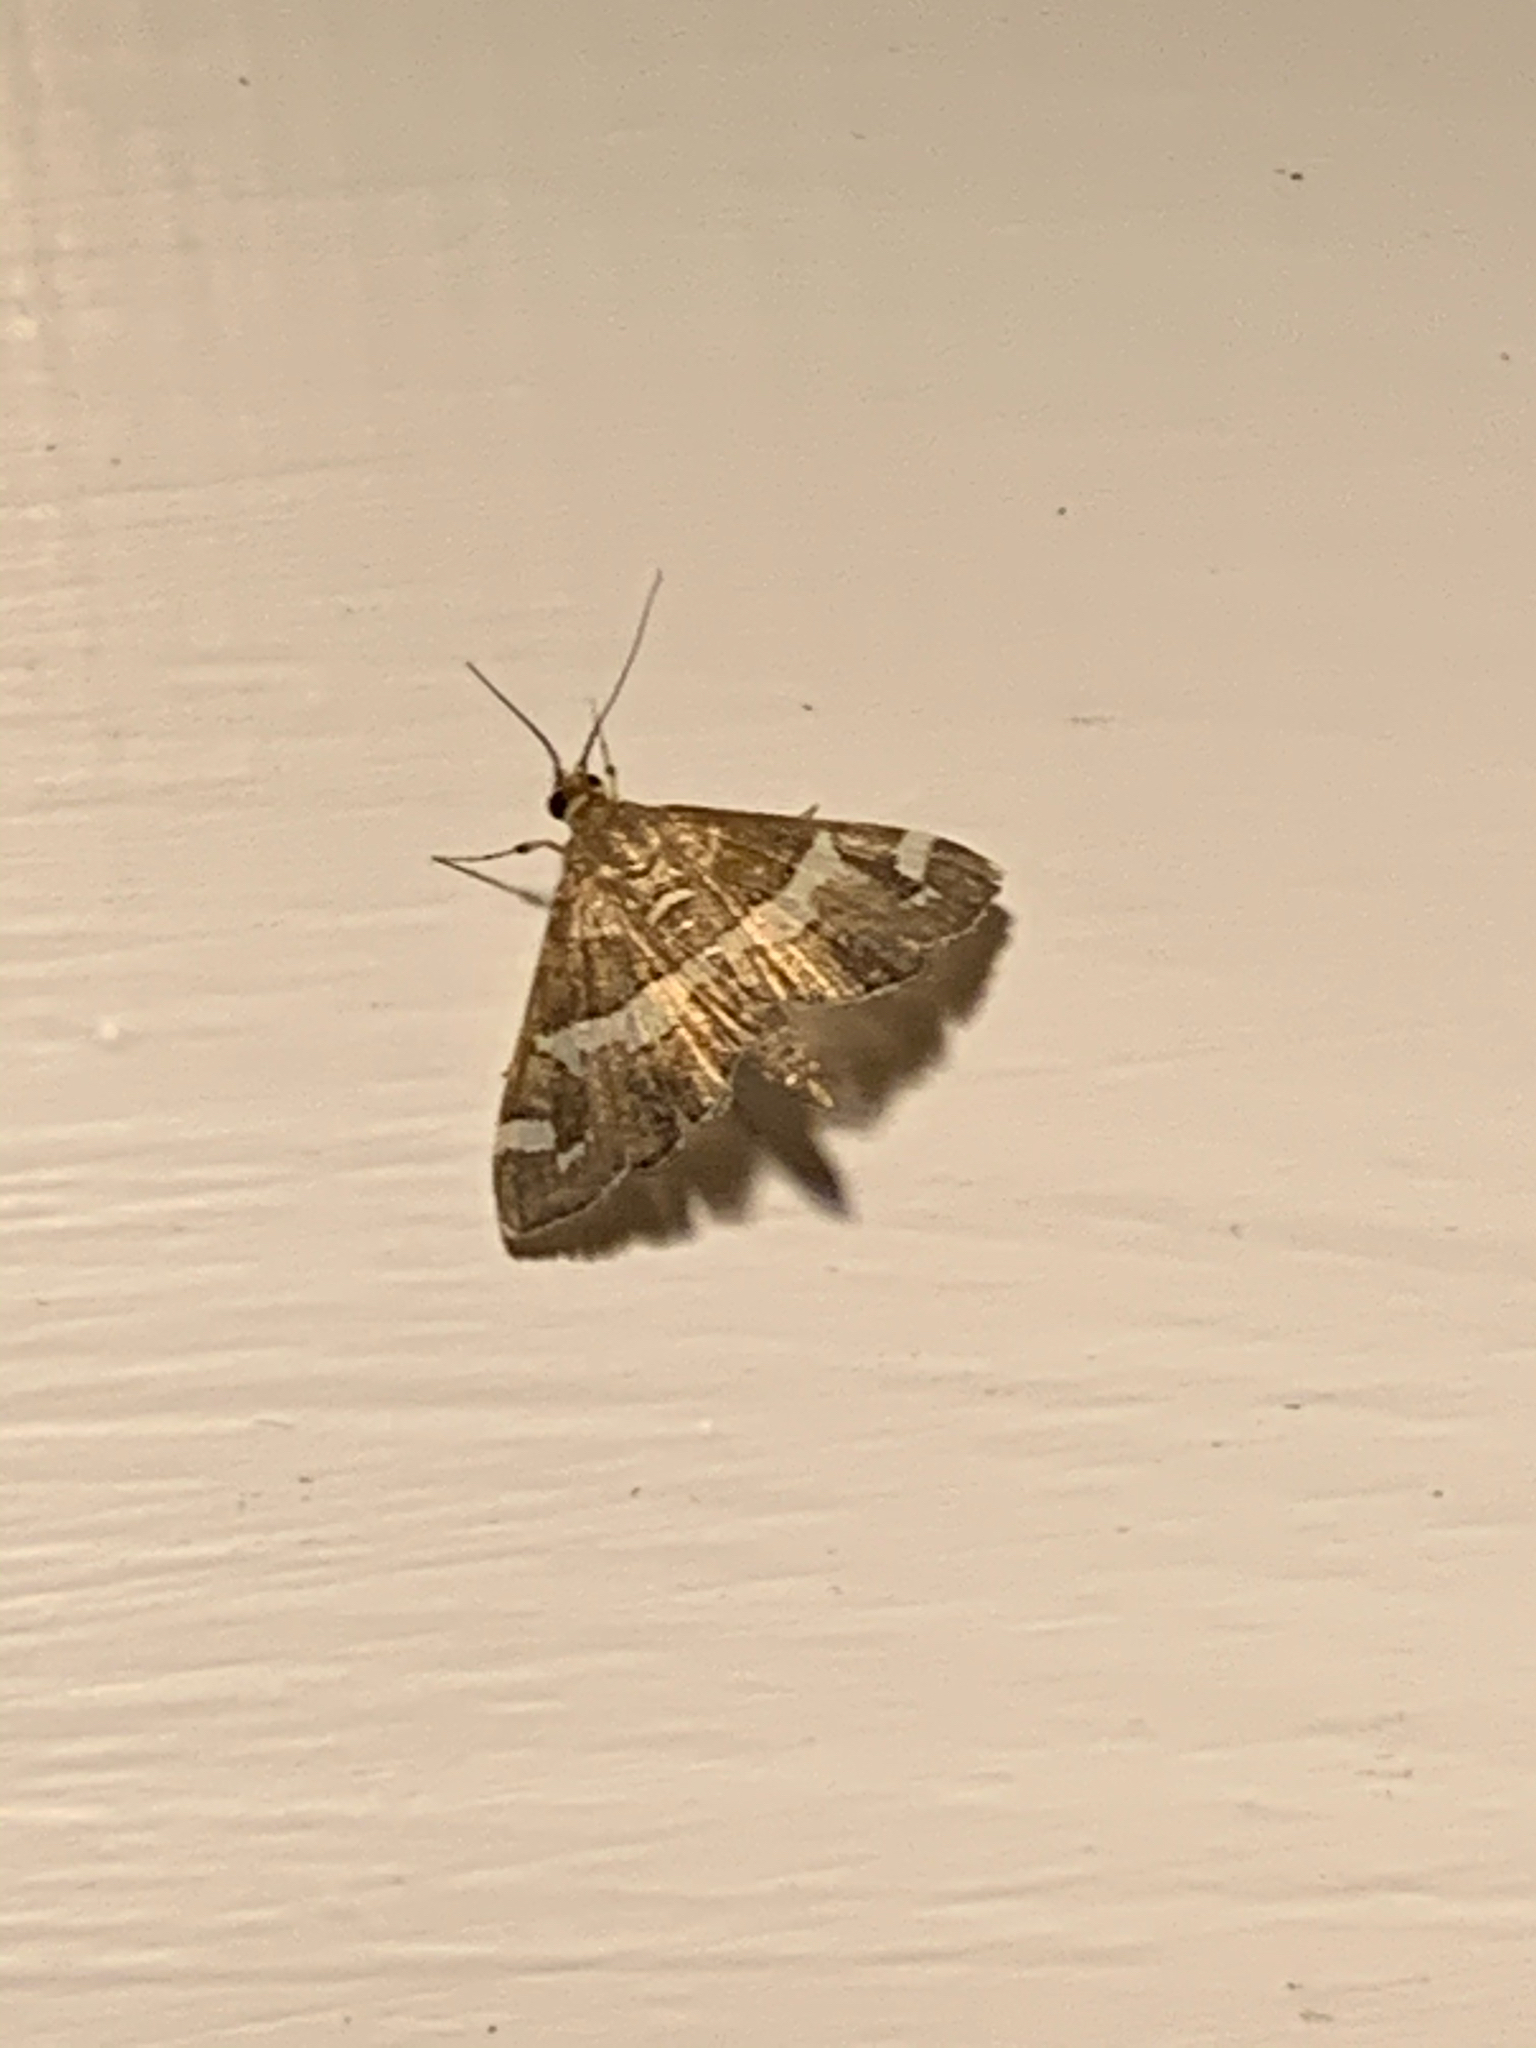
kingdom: Animalia
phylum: Arthropoda
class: Insecta
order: Lepidoptera
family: Crambidae
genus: Spoladea
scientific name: Spoladea recurvalis
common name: Beet webworm moth
